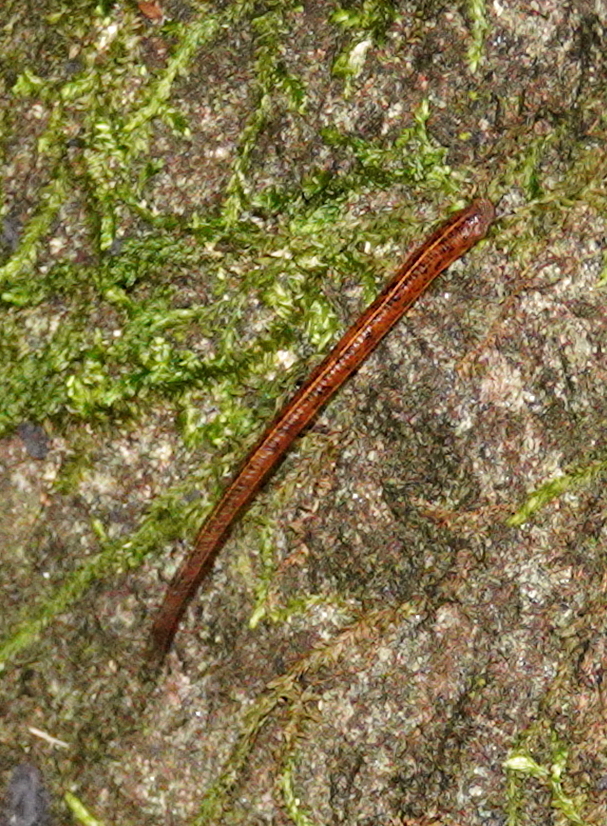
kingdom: Animalia
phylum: Annelida
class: Clitellata
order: Arhynchobdellida
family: Haemadipsidae
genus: Haemadipsa
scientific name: Haemadipsa zeylanica
